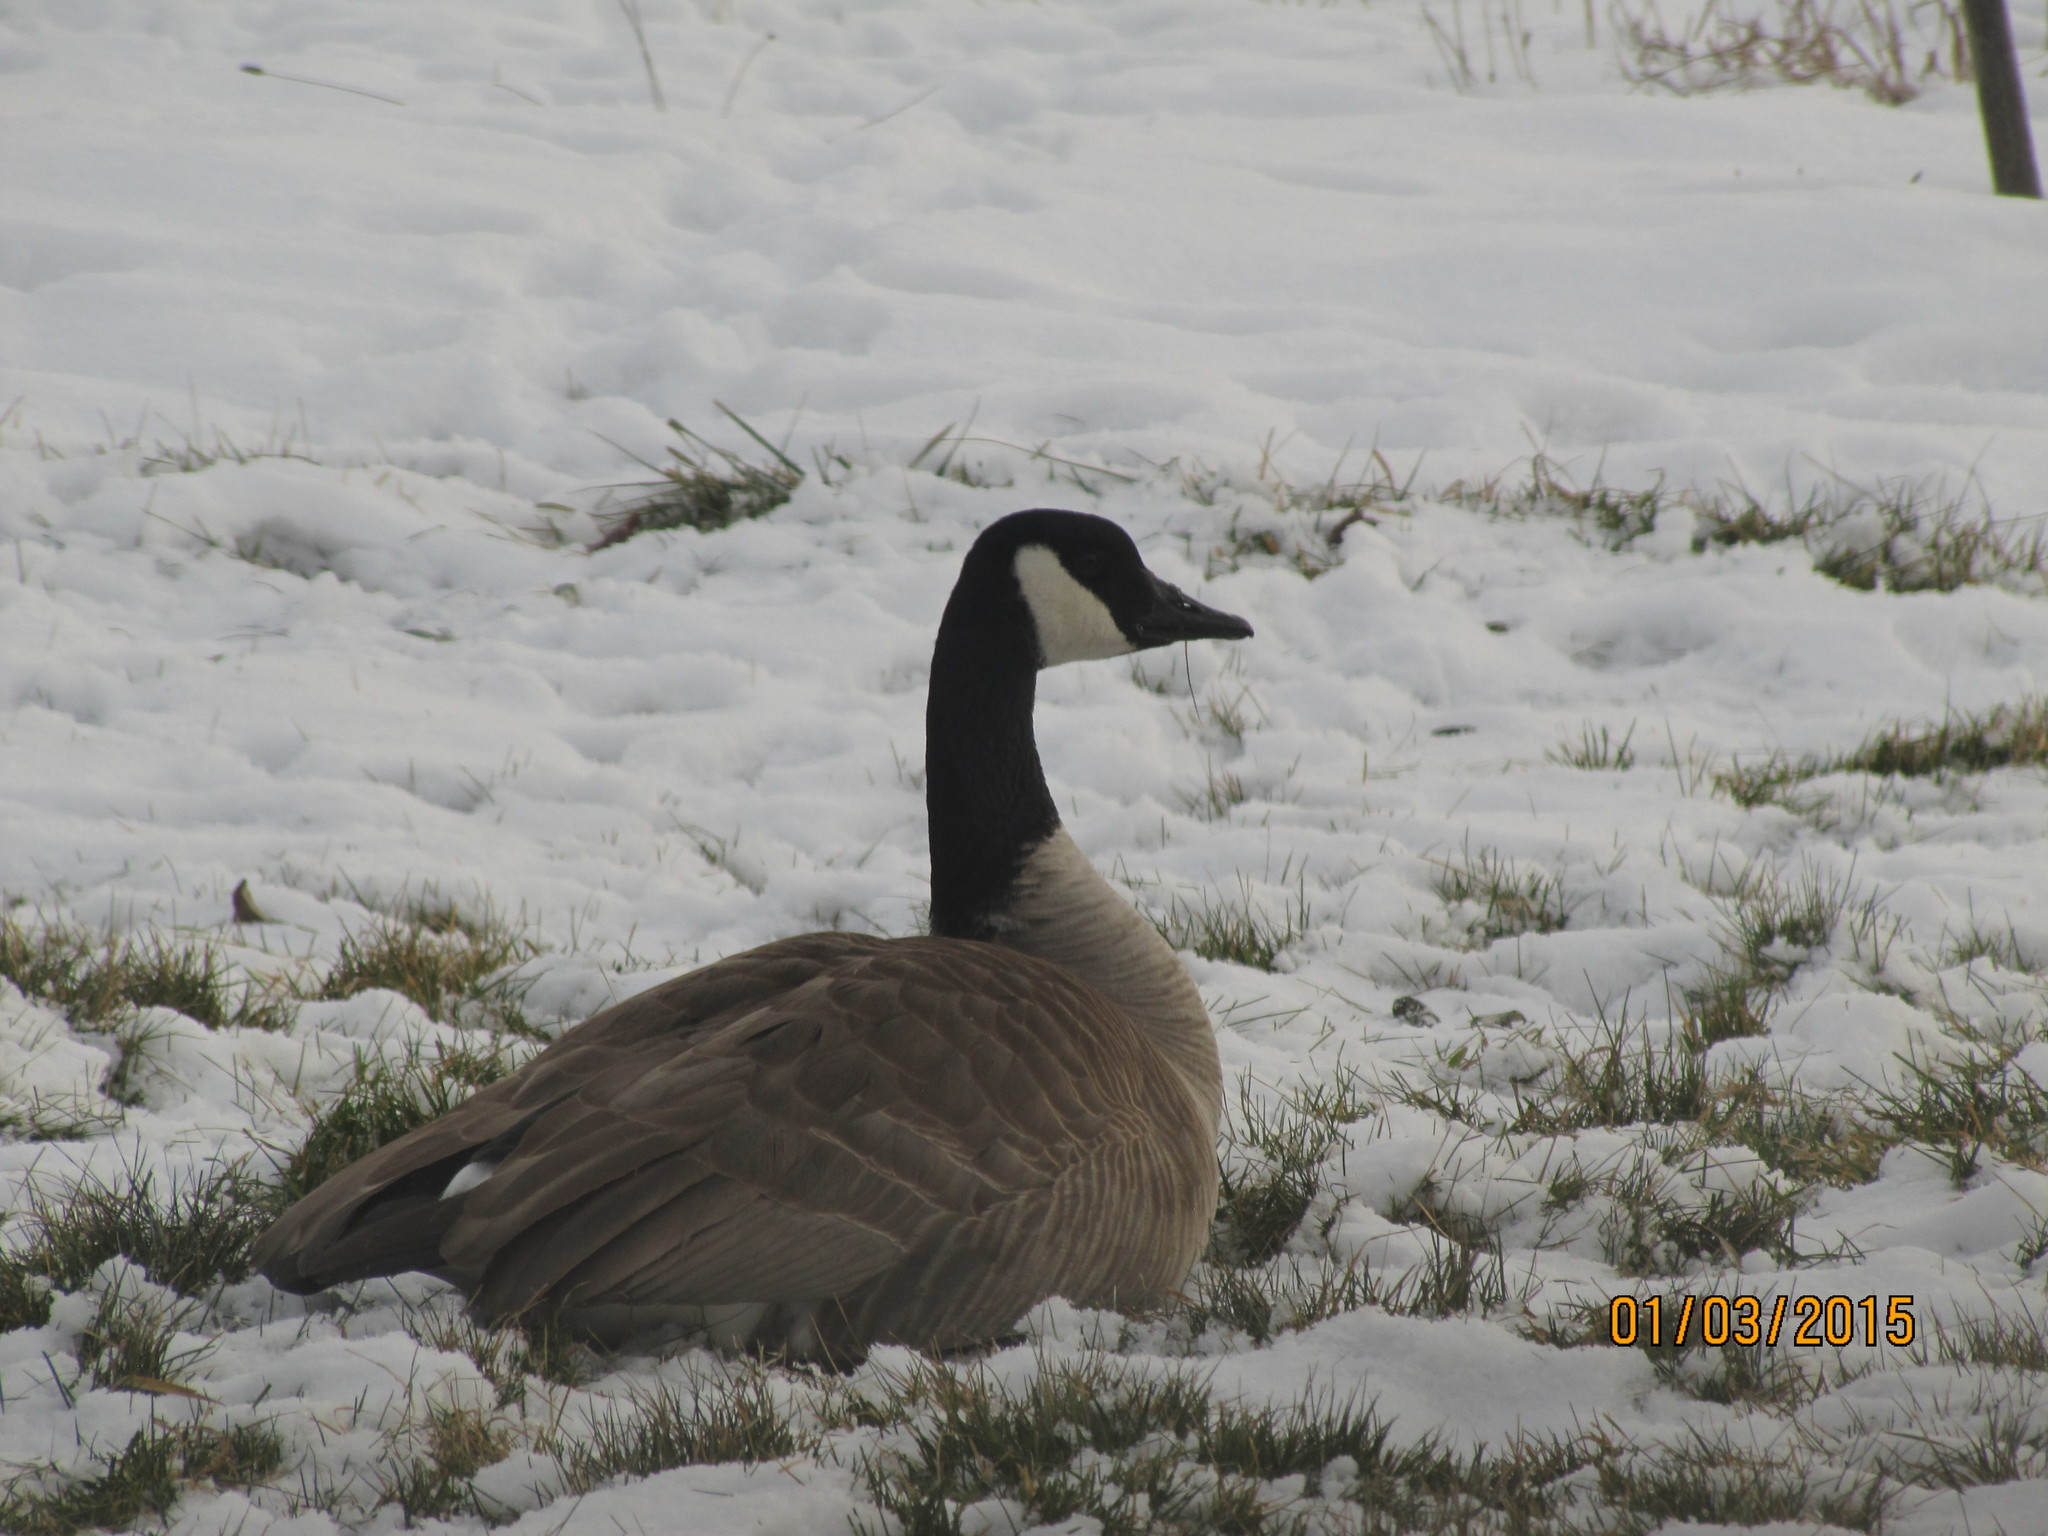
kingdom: Animalia
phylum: Chordata
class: Aves
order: Anseriformes
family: Anatidae
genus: Branta
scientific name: Branta canadensis
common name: Canada goose
